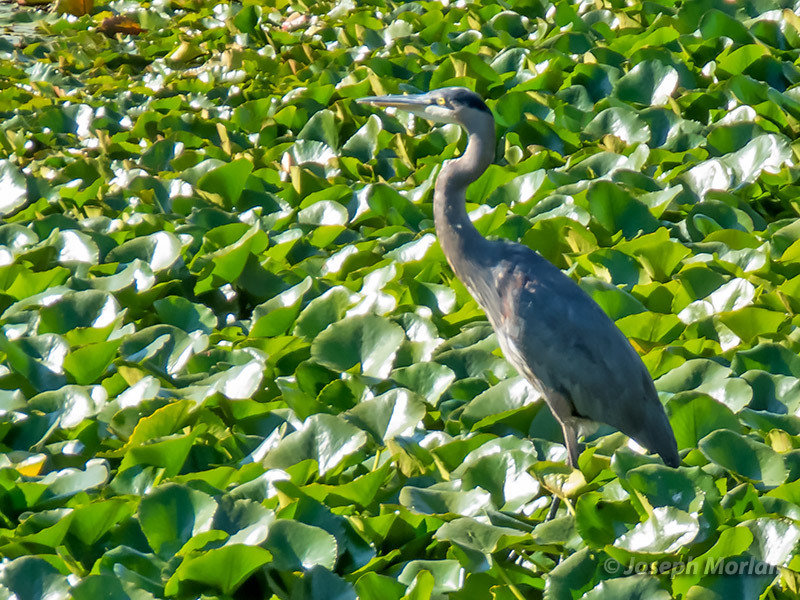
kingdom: Animalia
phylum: Chordata
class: Aves
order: Pelecaniformes
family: Ardeidae
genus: Ardea
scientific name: Ardea herodias
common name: Great blue heron
